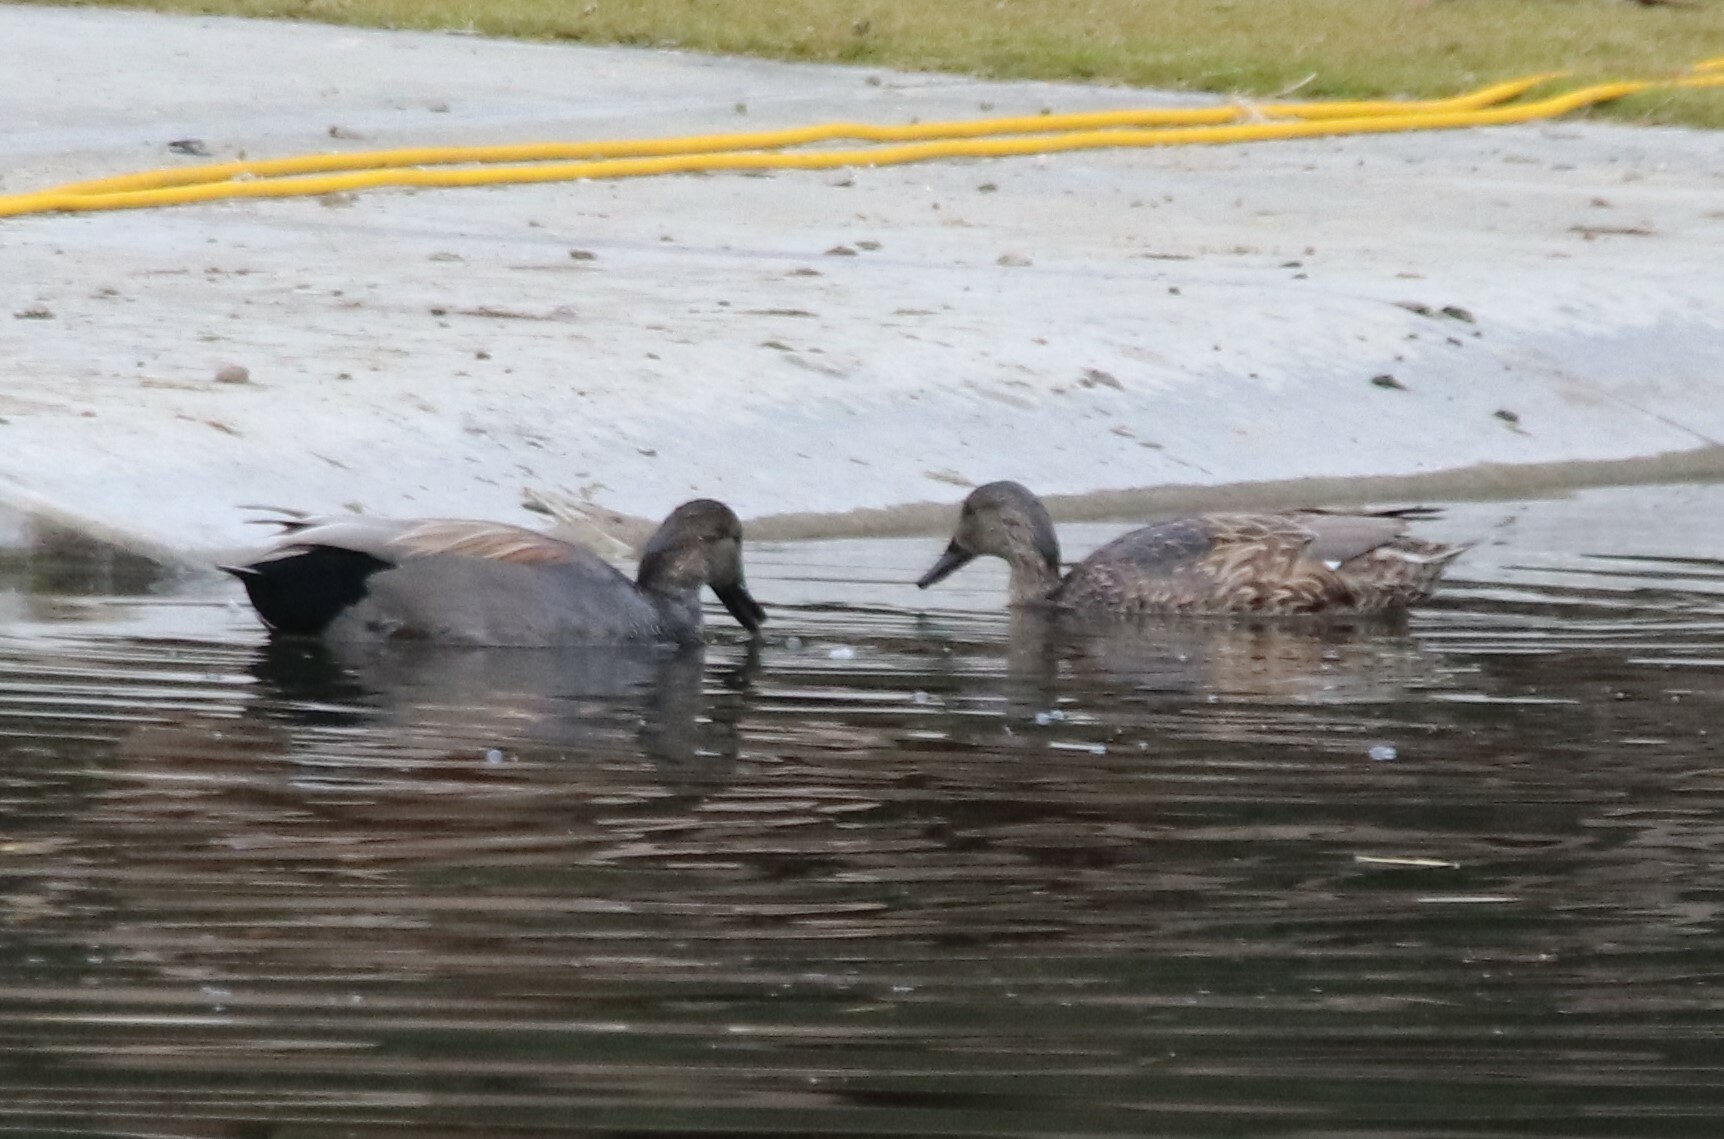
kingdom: Animalia
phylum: Chordata
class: Aves
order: Anseriformes
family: Anatidae
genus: Mareca
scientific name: Mareca strepera
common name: Gadwall
